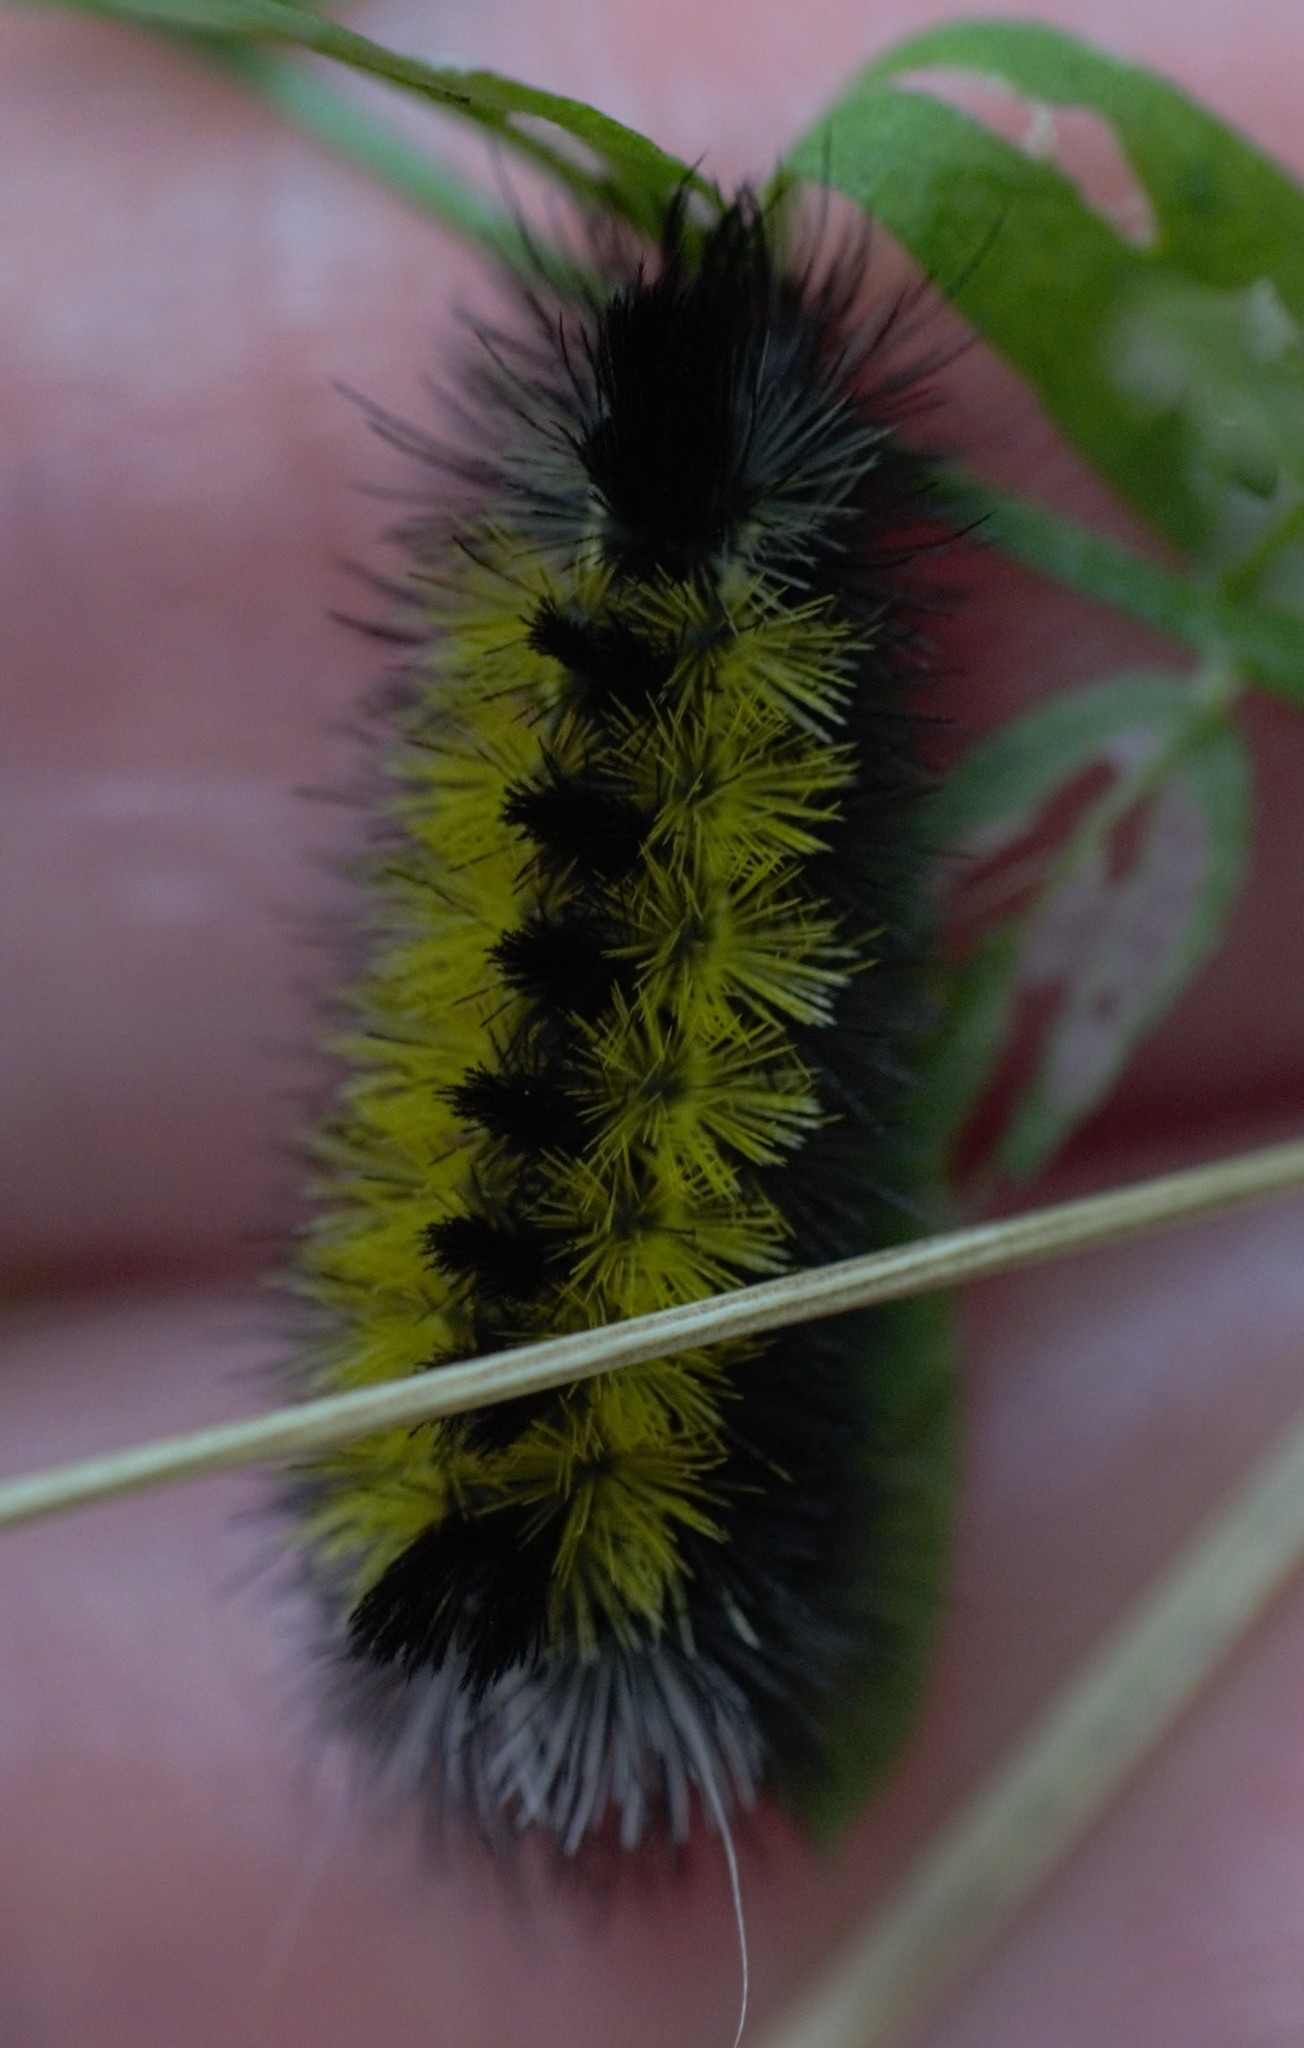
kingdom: Animalia
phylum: Arthropoda
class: Insecta
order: Lepidoptera
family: Erebidae
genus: Ctenucha
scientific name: Ctenucha virginica
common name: Virginia ctenucha moth
